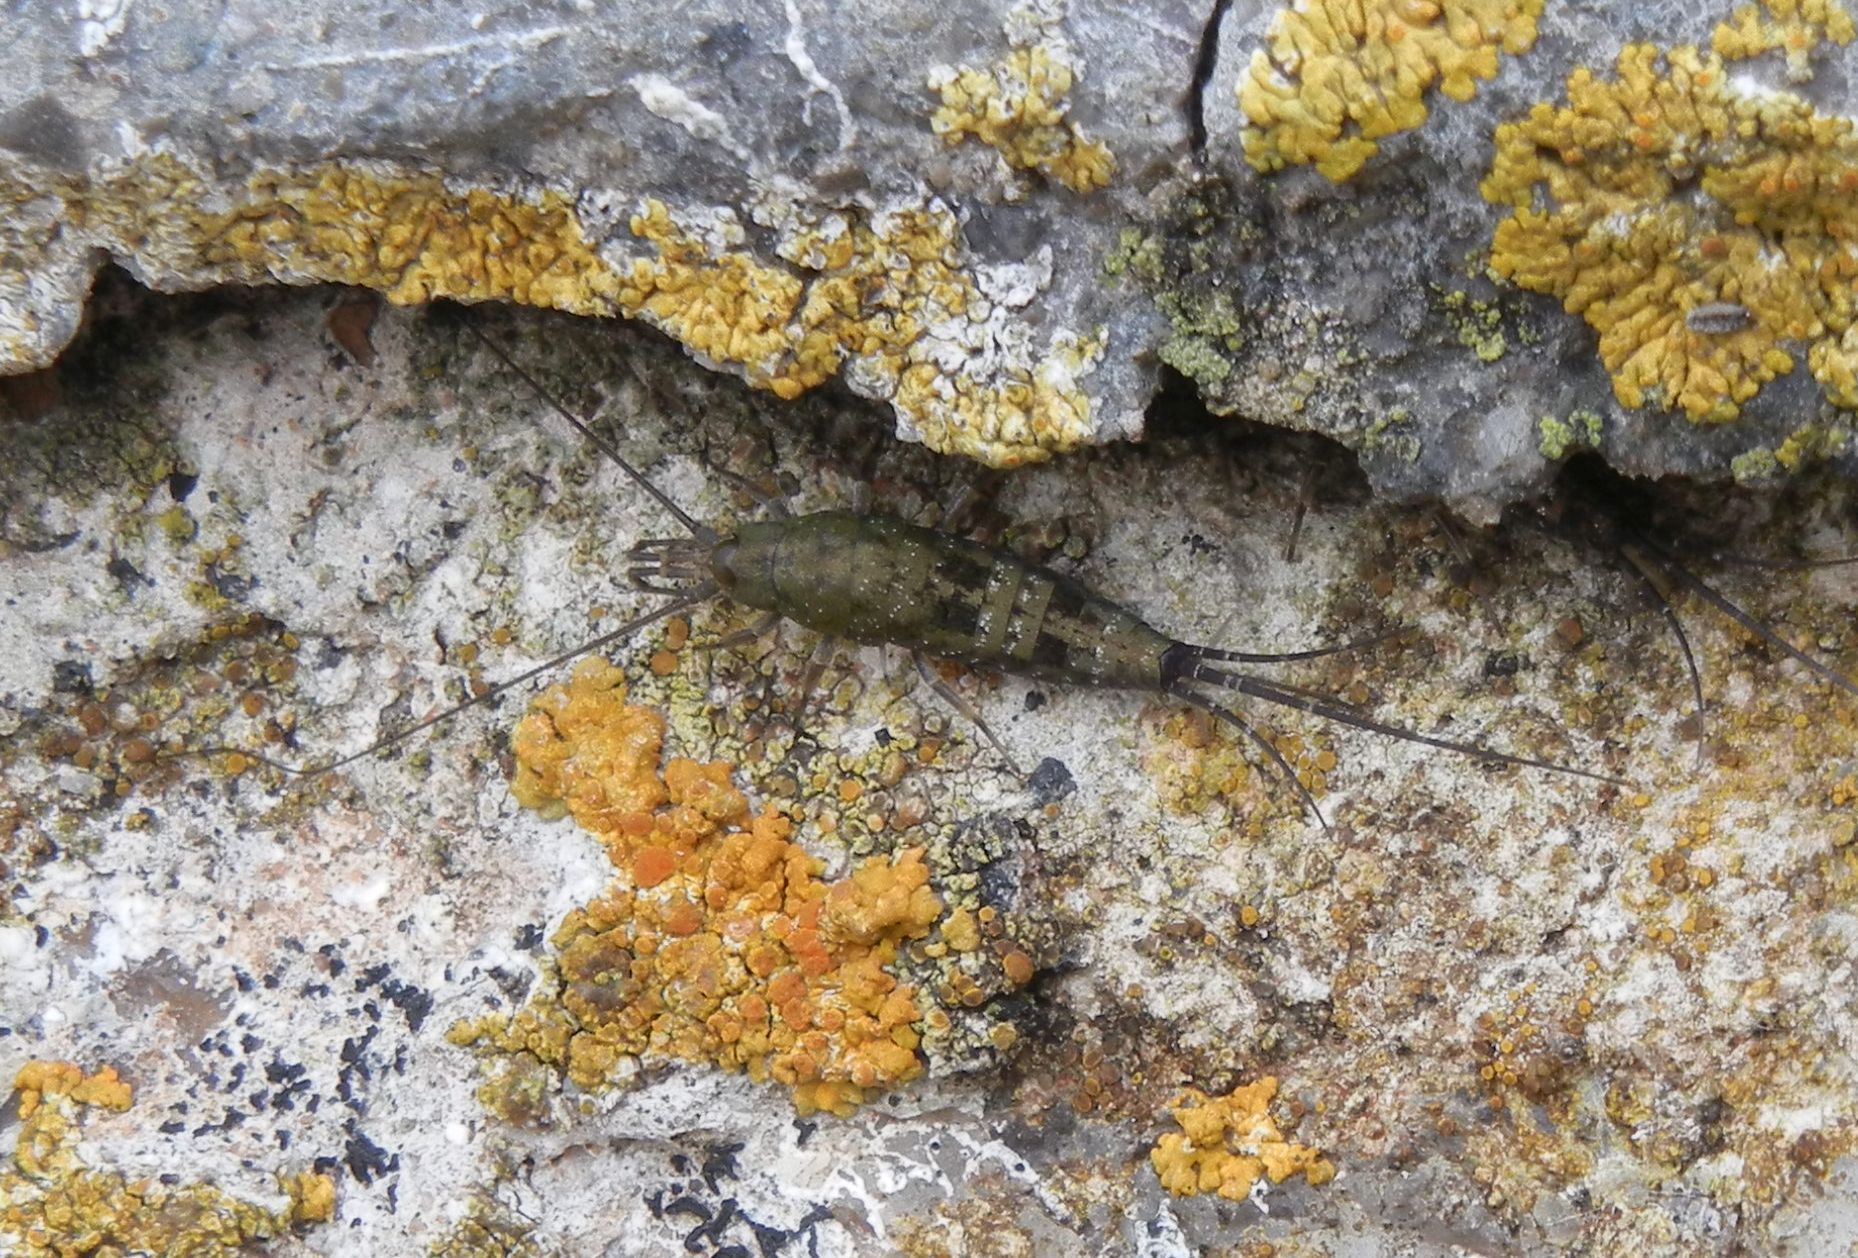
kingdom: Animalia
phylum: Arthropoda
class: Insecta
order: Archaeognatha
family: Machilidae
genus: Petrobius
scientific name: Petrobius brevistylis
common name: Jumping bristletail
